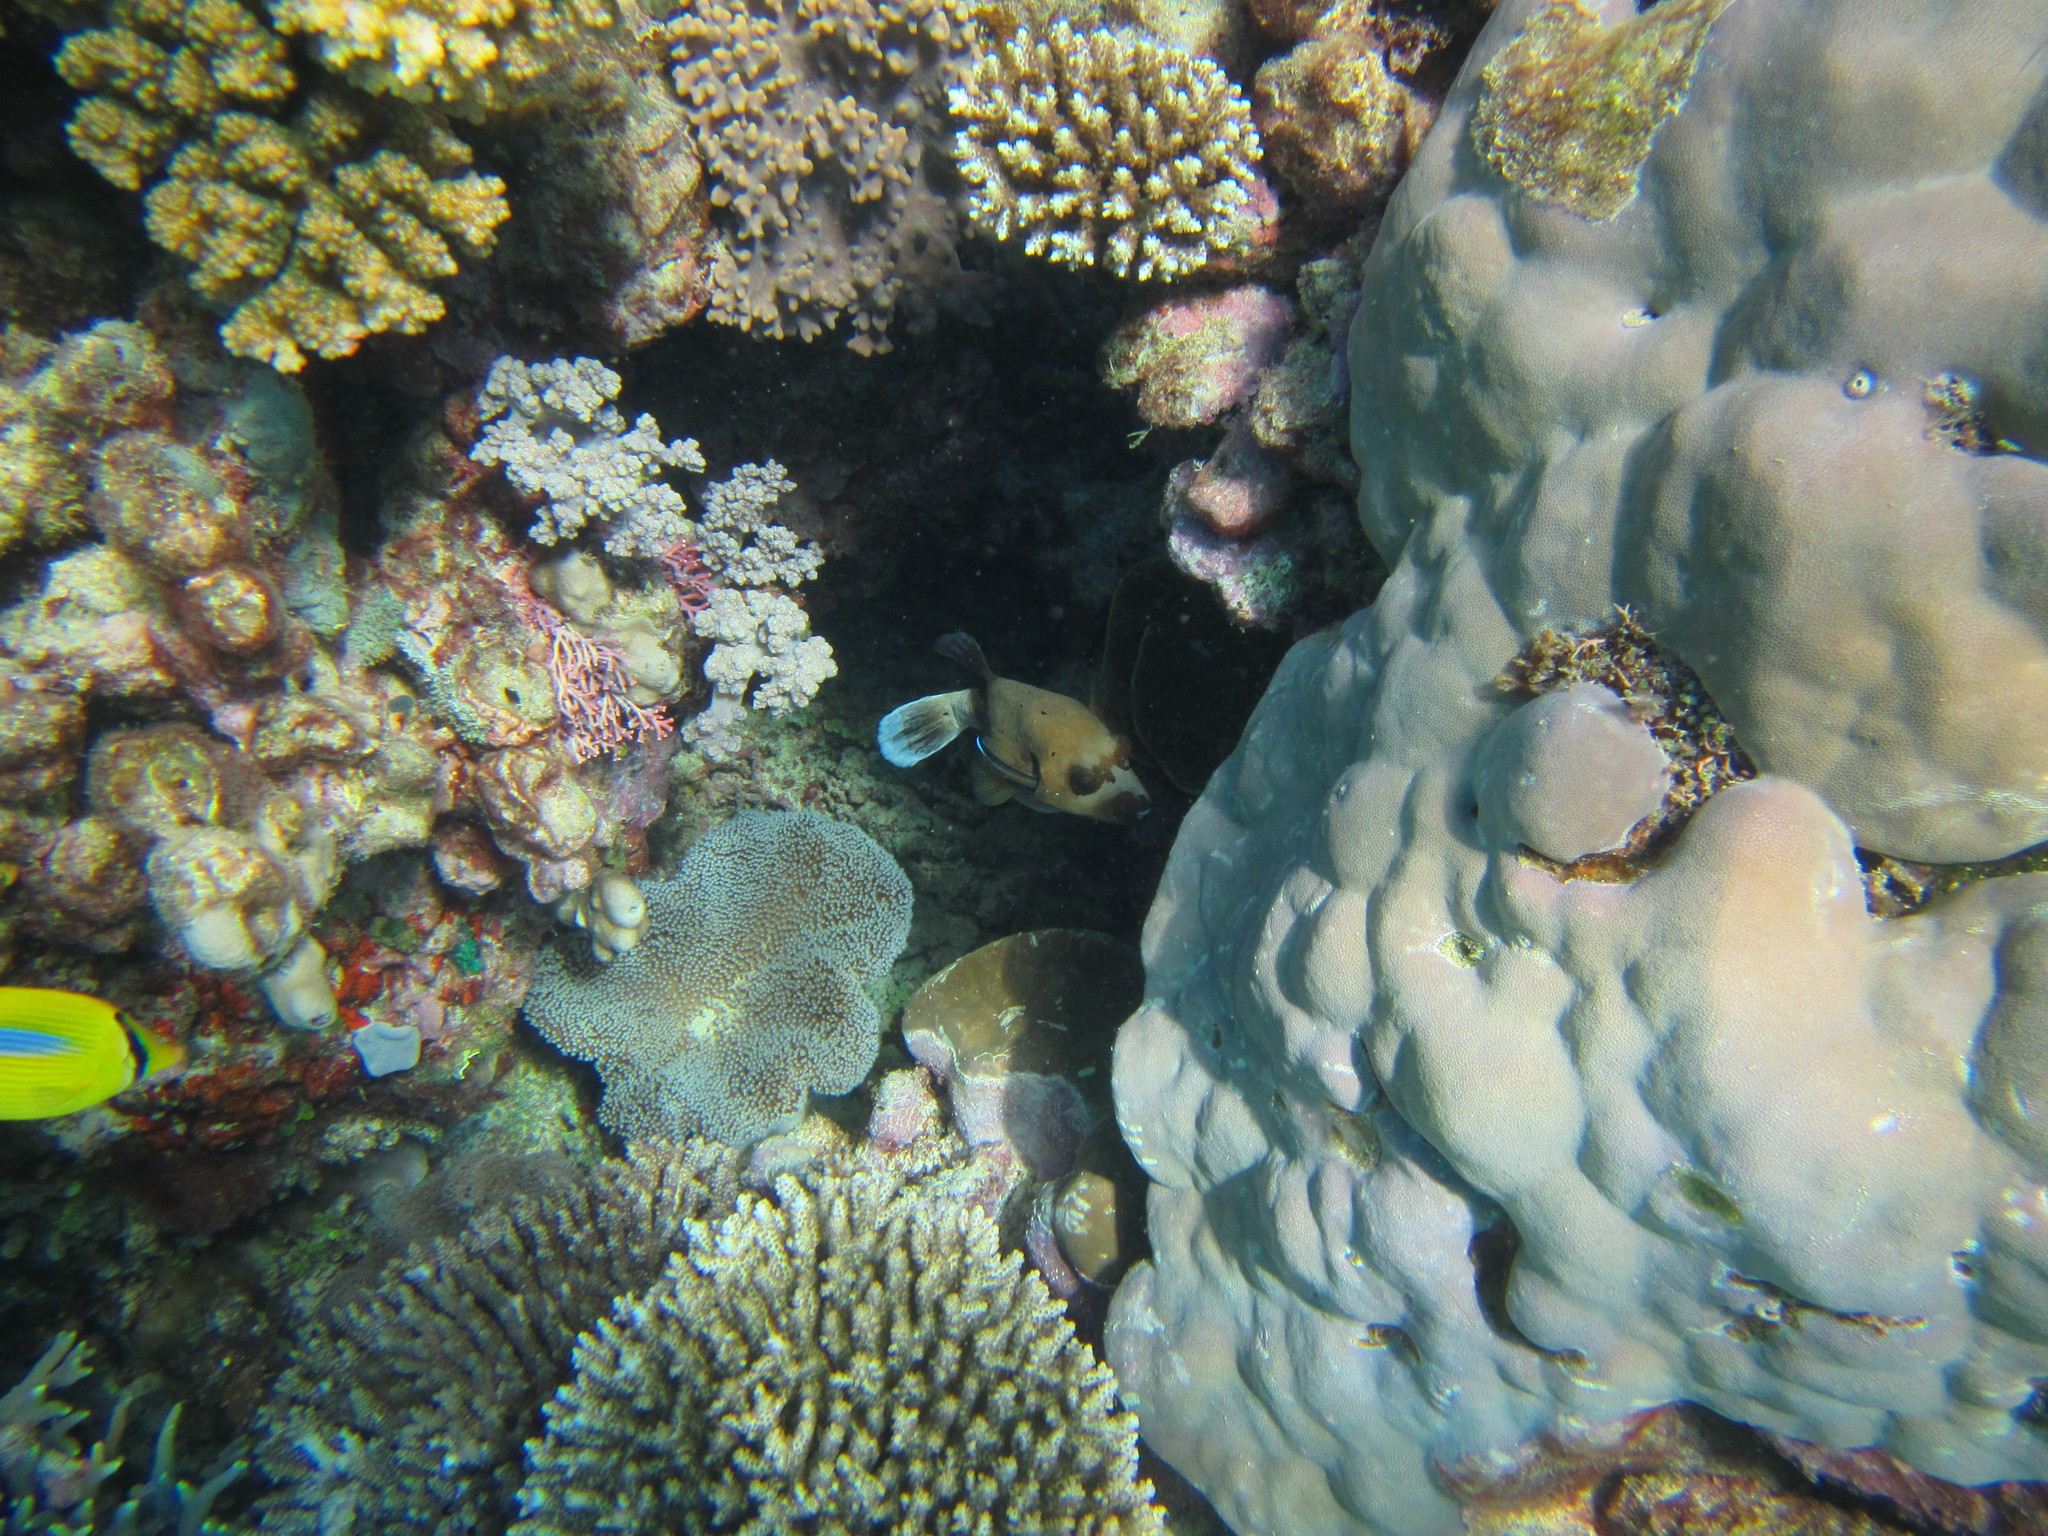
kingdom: Animalia
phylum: Chordata
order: Tetraodontiformes
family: Tetraodontidae
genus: Arothron
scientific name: Arothron nigropunctatus
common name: Black spotted blow fish
